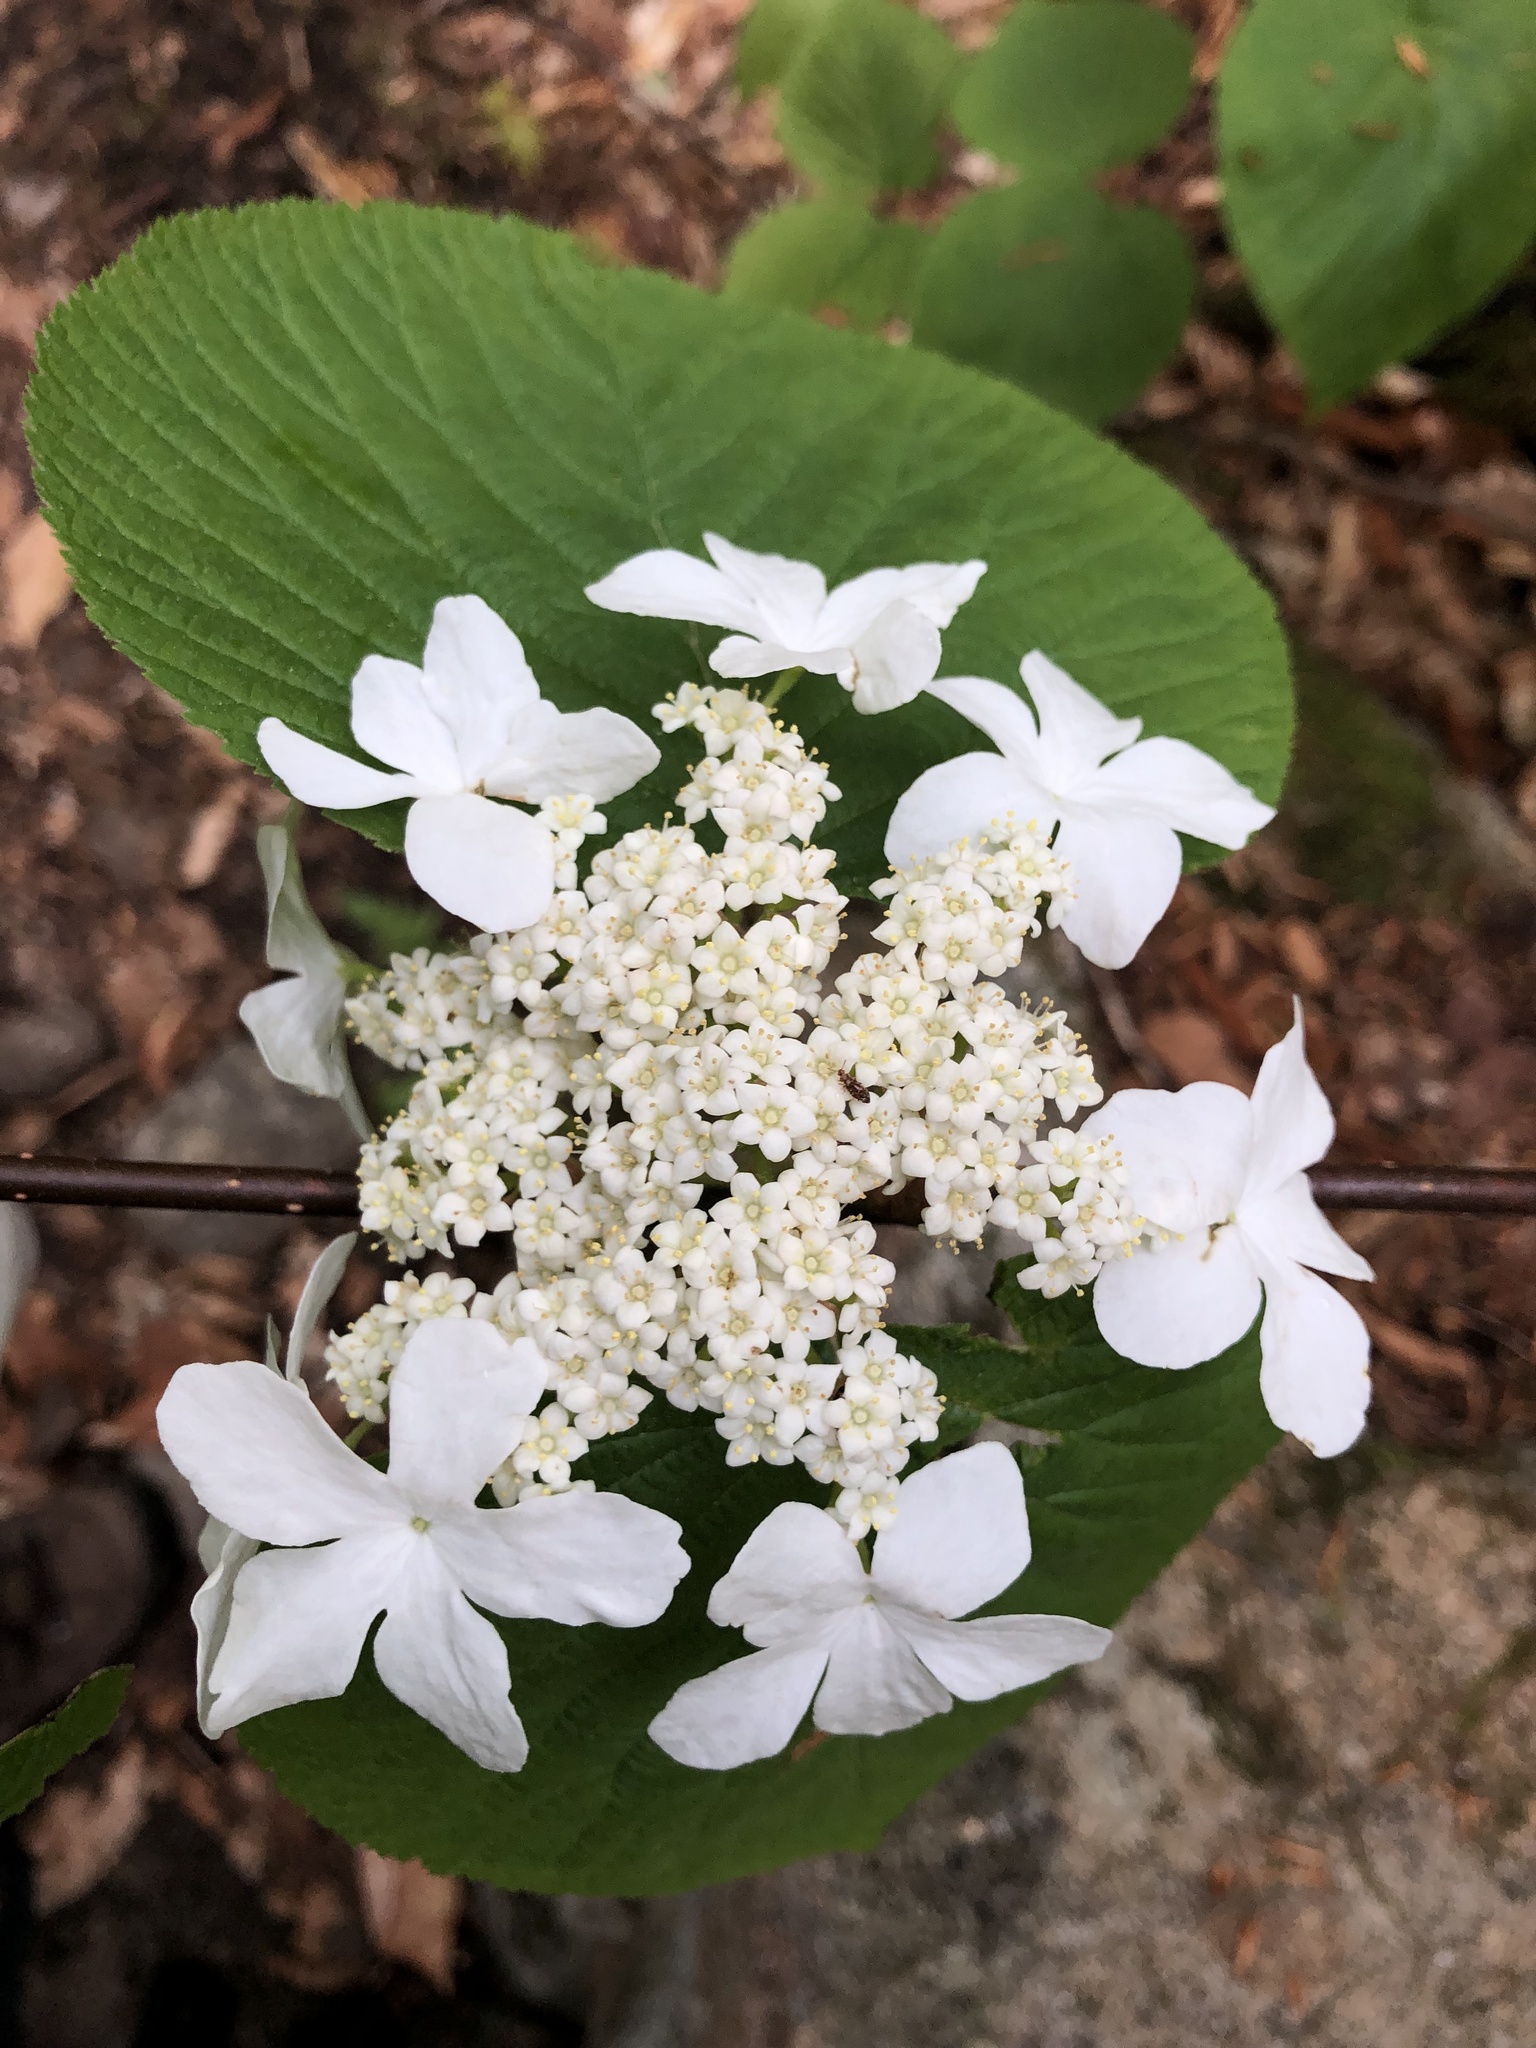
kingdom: Plantae
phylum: Tracheophyta
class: Magnoliopsida
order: Dipsacales
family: Viburnaceae
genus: Viburnum
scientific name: Viburnum lantanoides
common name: Hobblebush
